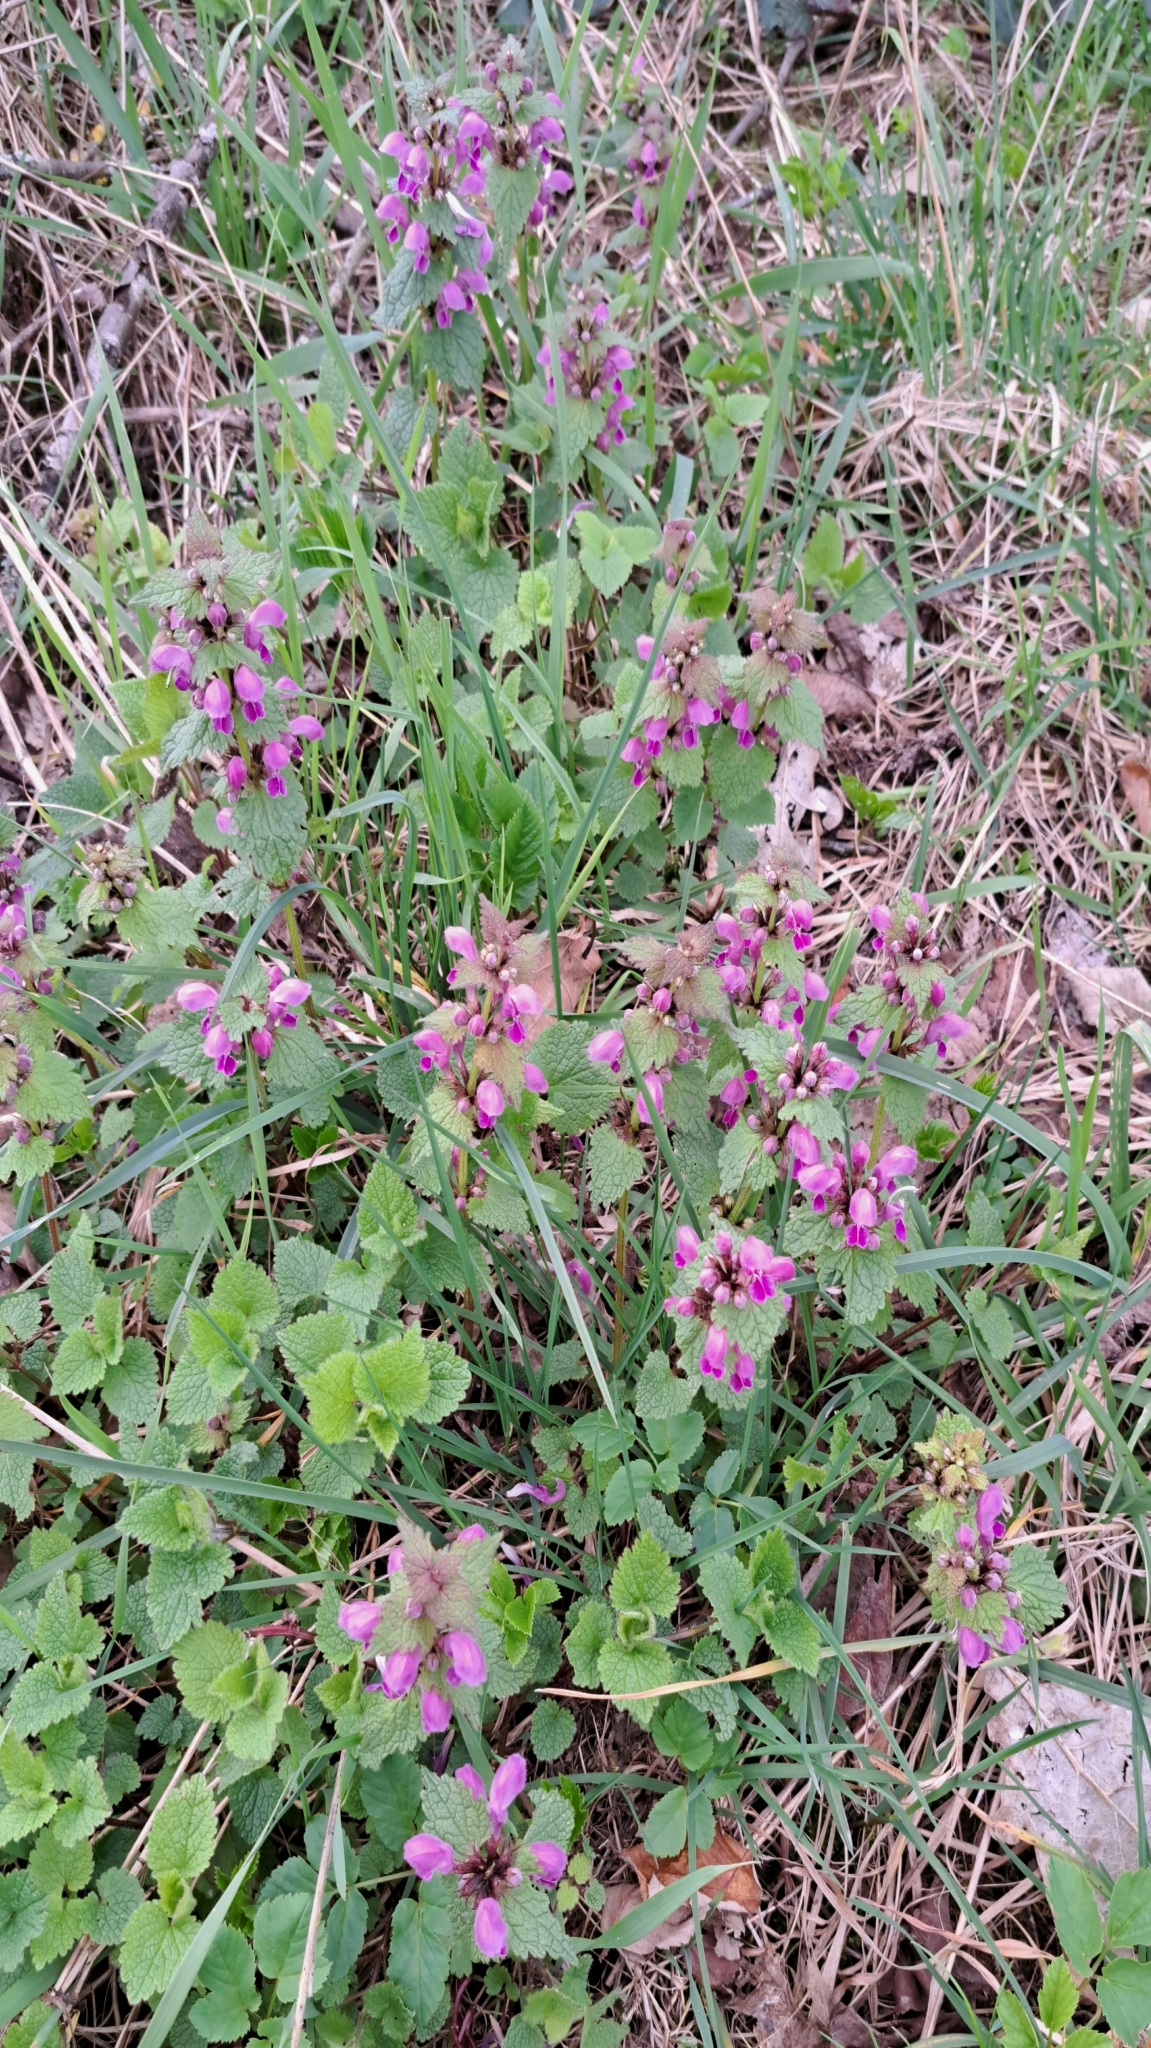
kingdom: Plantae
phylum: Tracheophyta
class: Magnoliopsida
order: Lamiales
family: Lamiaceae
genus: Lamium
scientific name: Lamium maculatum
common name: Spotted dead-nettle
